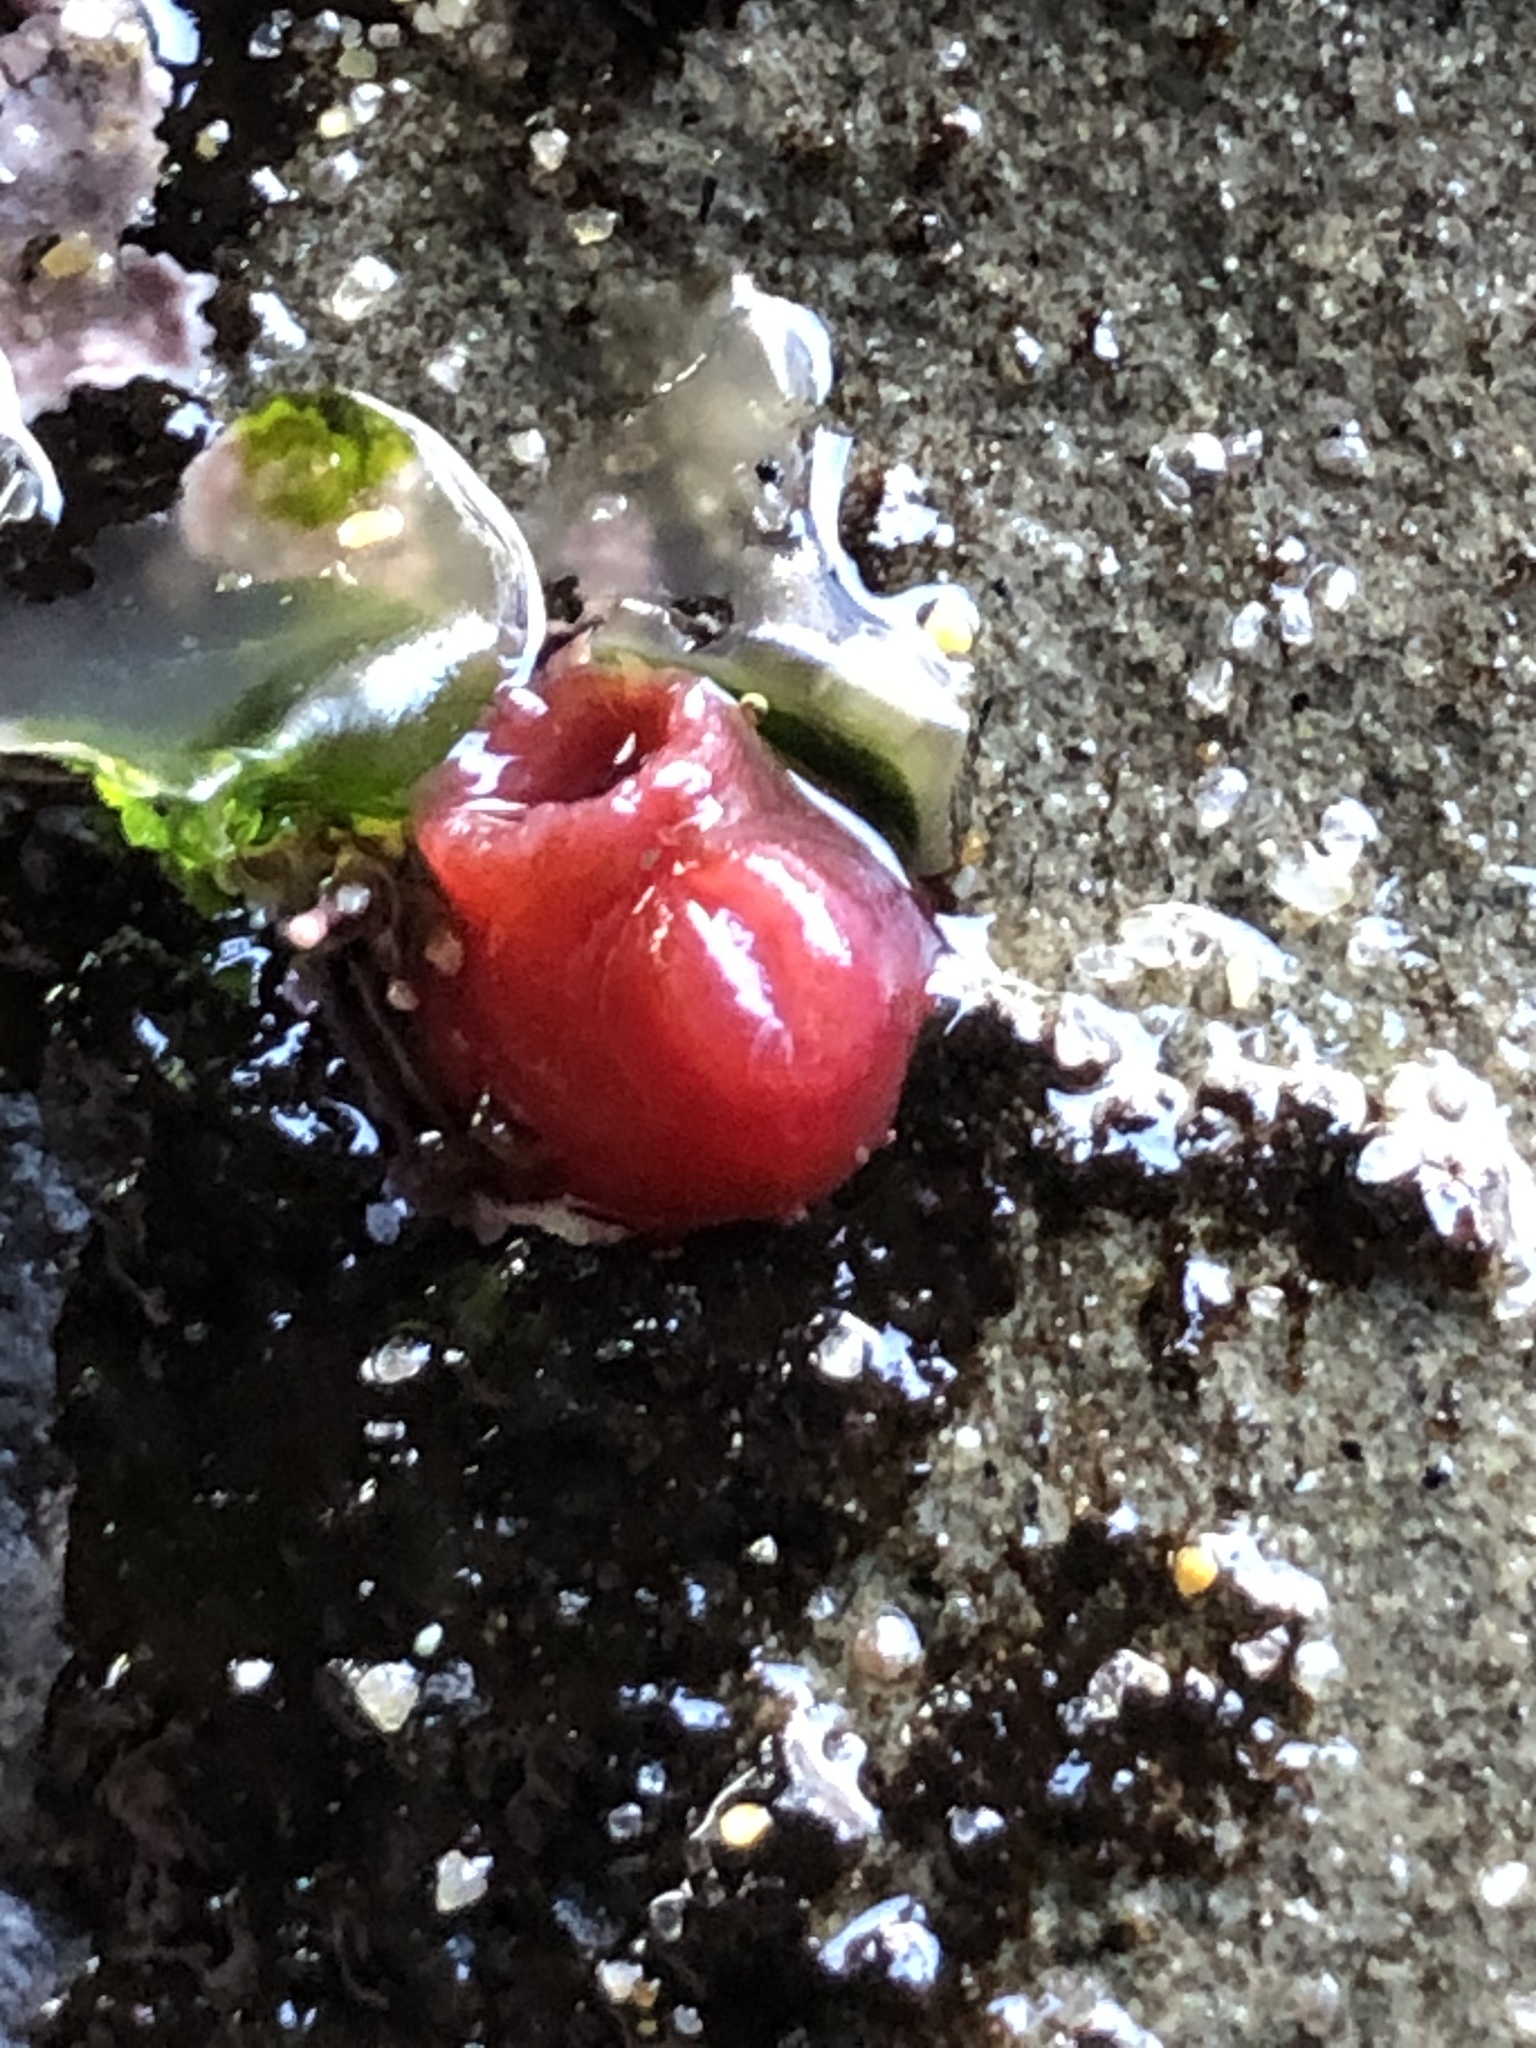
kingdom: Animalia
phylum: Mollusca
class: Bivalvia
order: Adapedonta
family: Hiatellidae
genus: Hiatella
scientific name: Hiatella arctica
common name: Arctic hiatella
